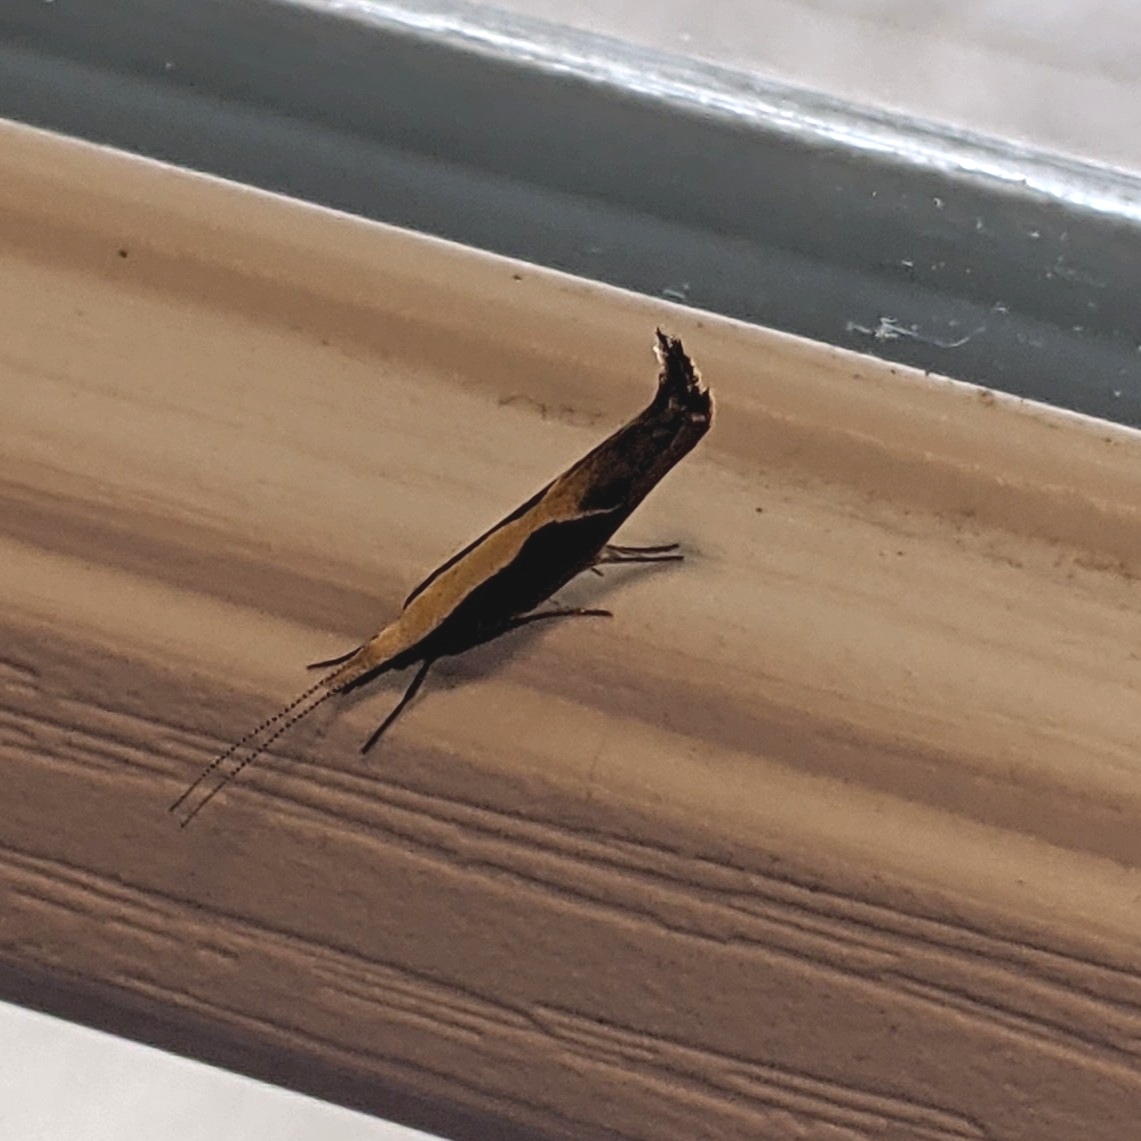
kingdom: Animalia
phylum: Arthropoda
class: Insecta
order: Lepidoptera
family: Ypsolophidae
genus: Ypsolopha
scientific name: Ypsolopha dentella
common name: Honeysuckle moth
